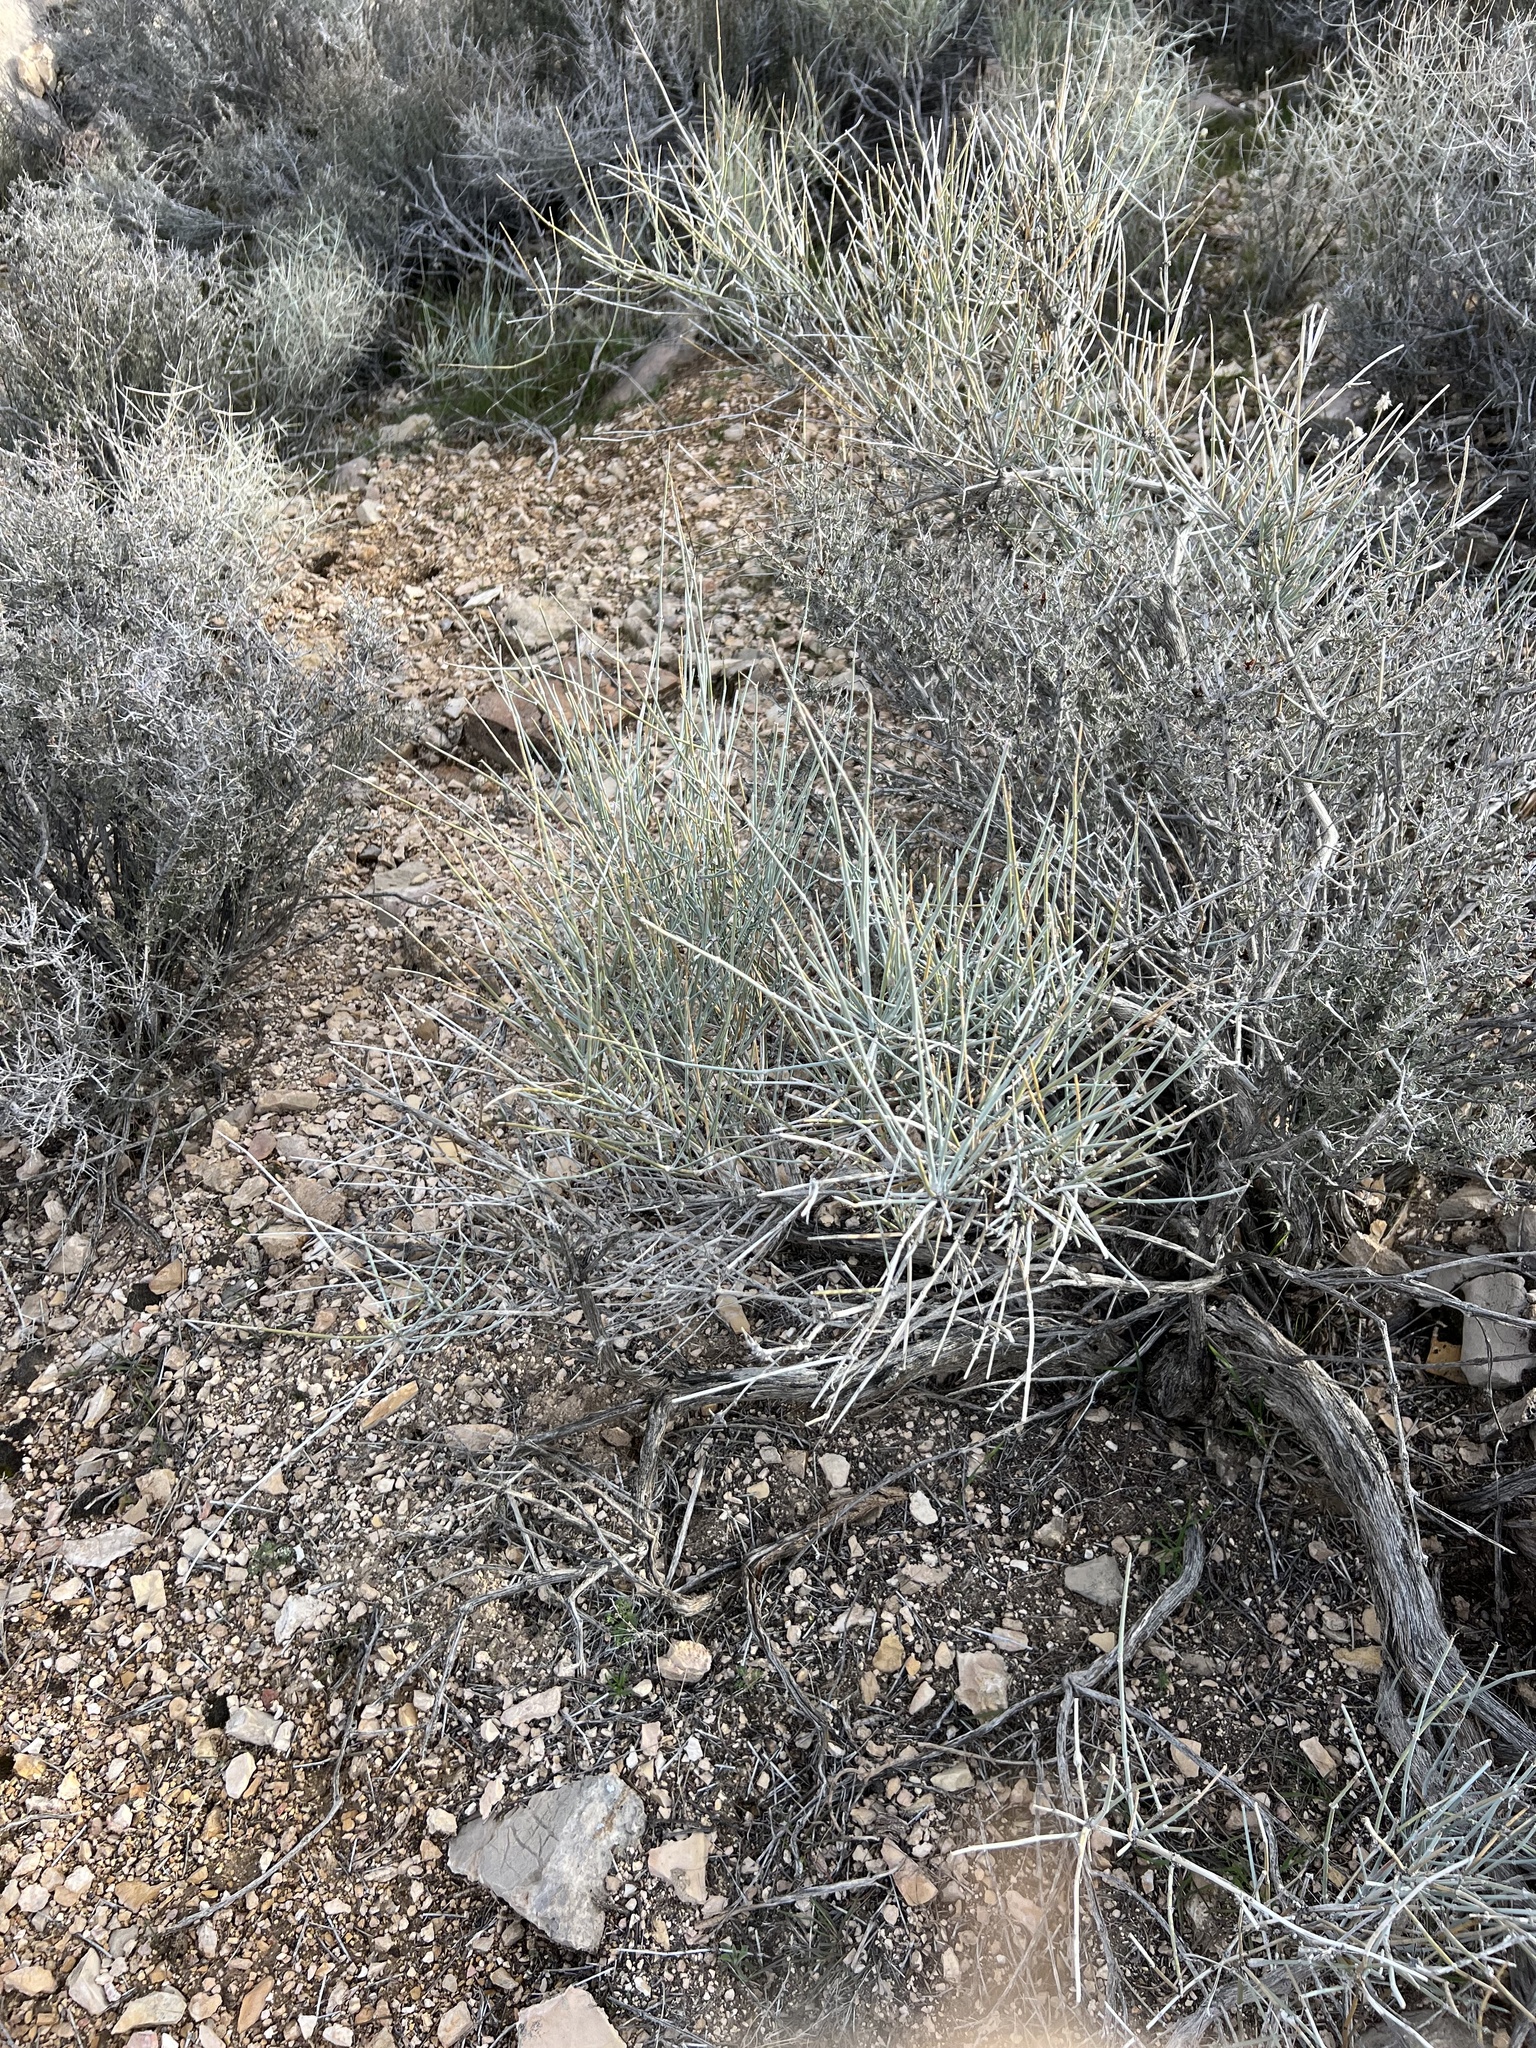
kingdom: Plantae
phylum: Tracheophyta
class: Gnetopsida
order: Ephedrales
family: Ephedraceae
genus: Ephedra
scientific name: Ephedra nevadensis
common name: Gray ephedra
